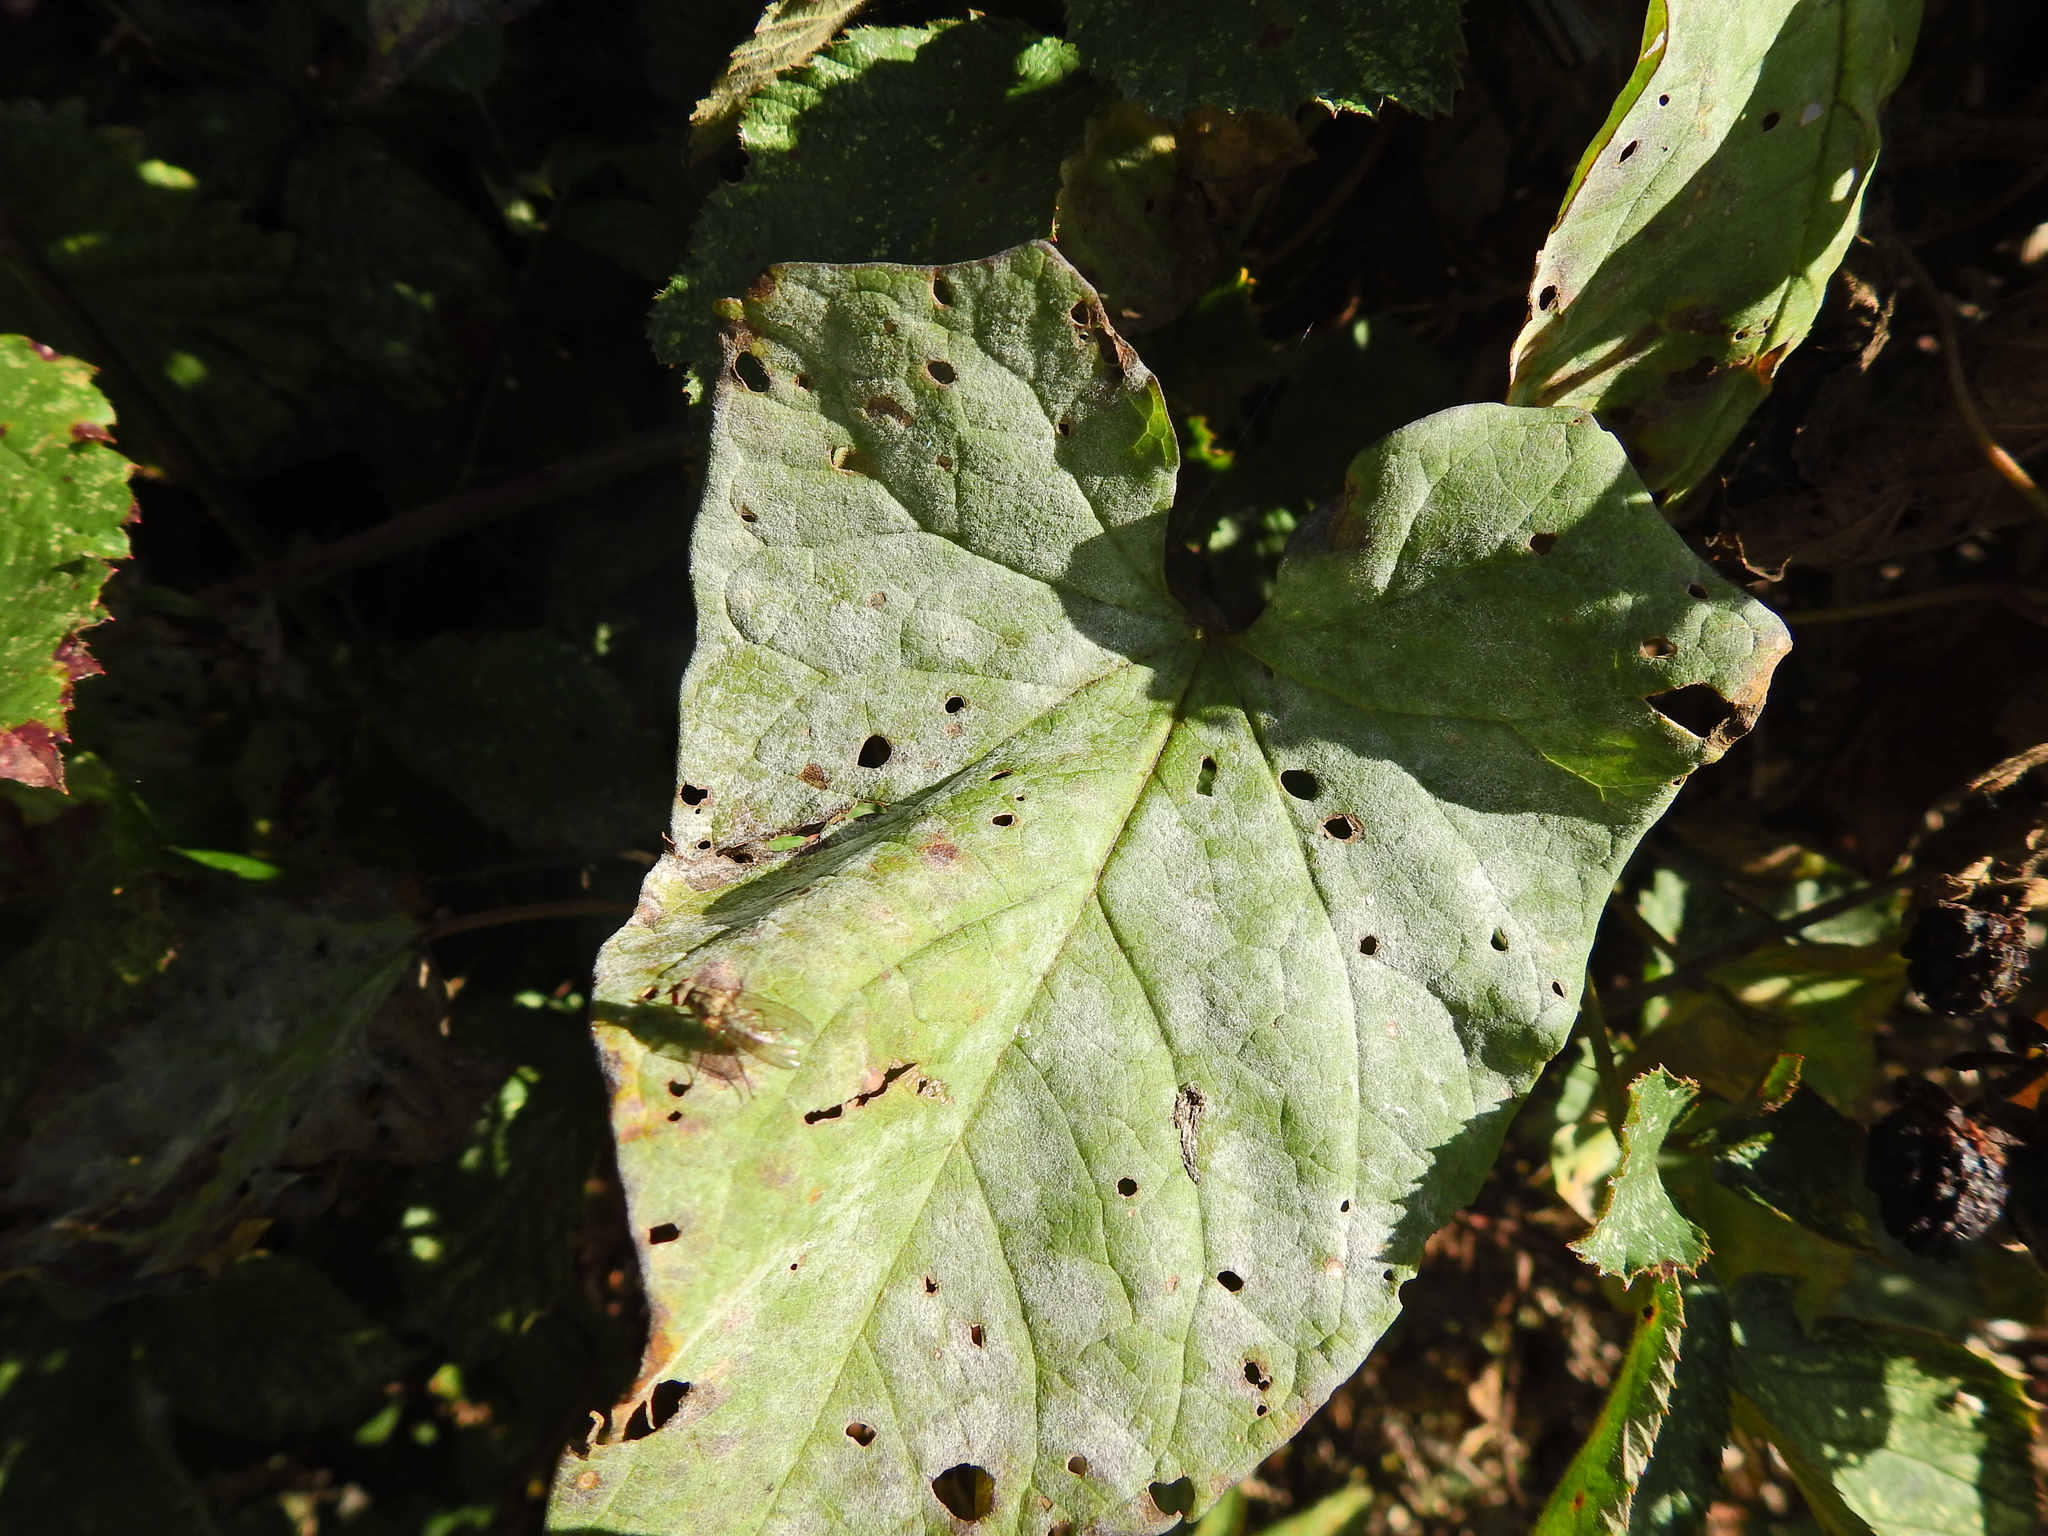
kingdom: Fungi
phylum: Ascomycota
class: Leotiomycetes
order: Helotiales
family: Erysiphaceae
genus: Erysiphe
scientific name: Erysiphe convolvuli
